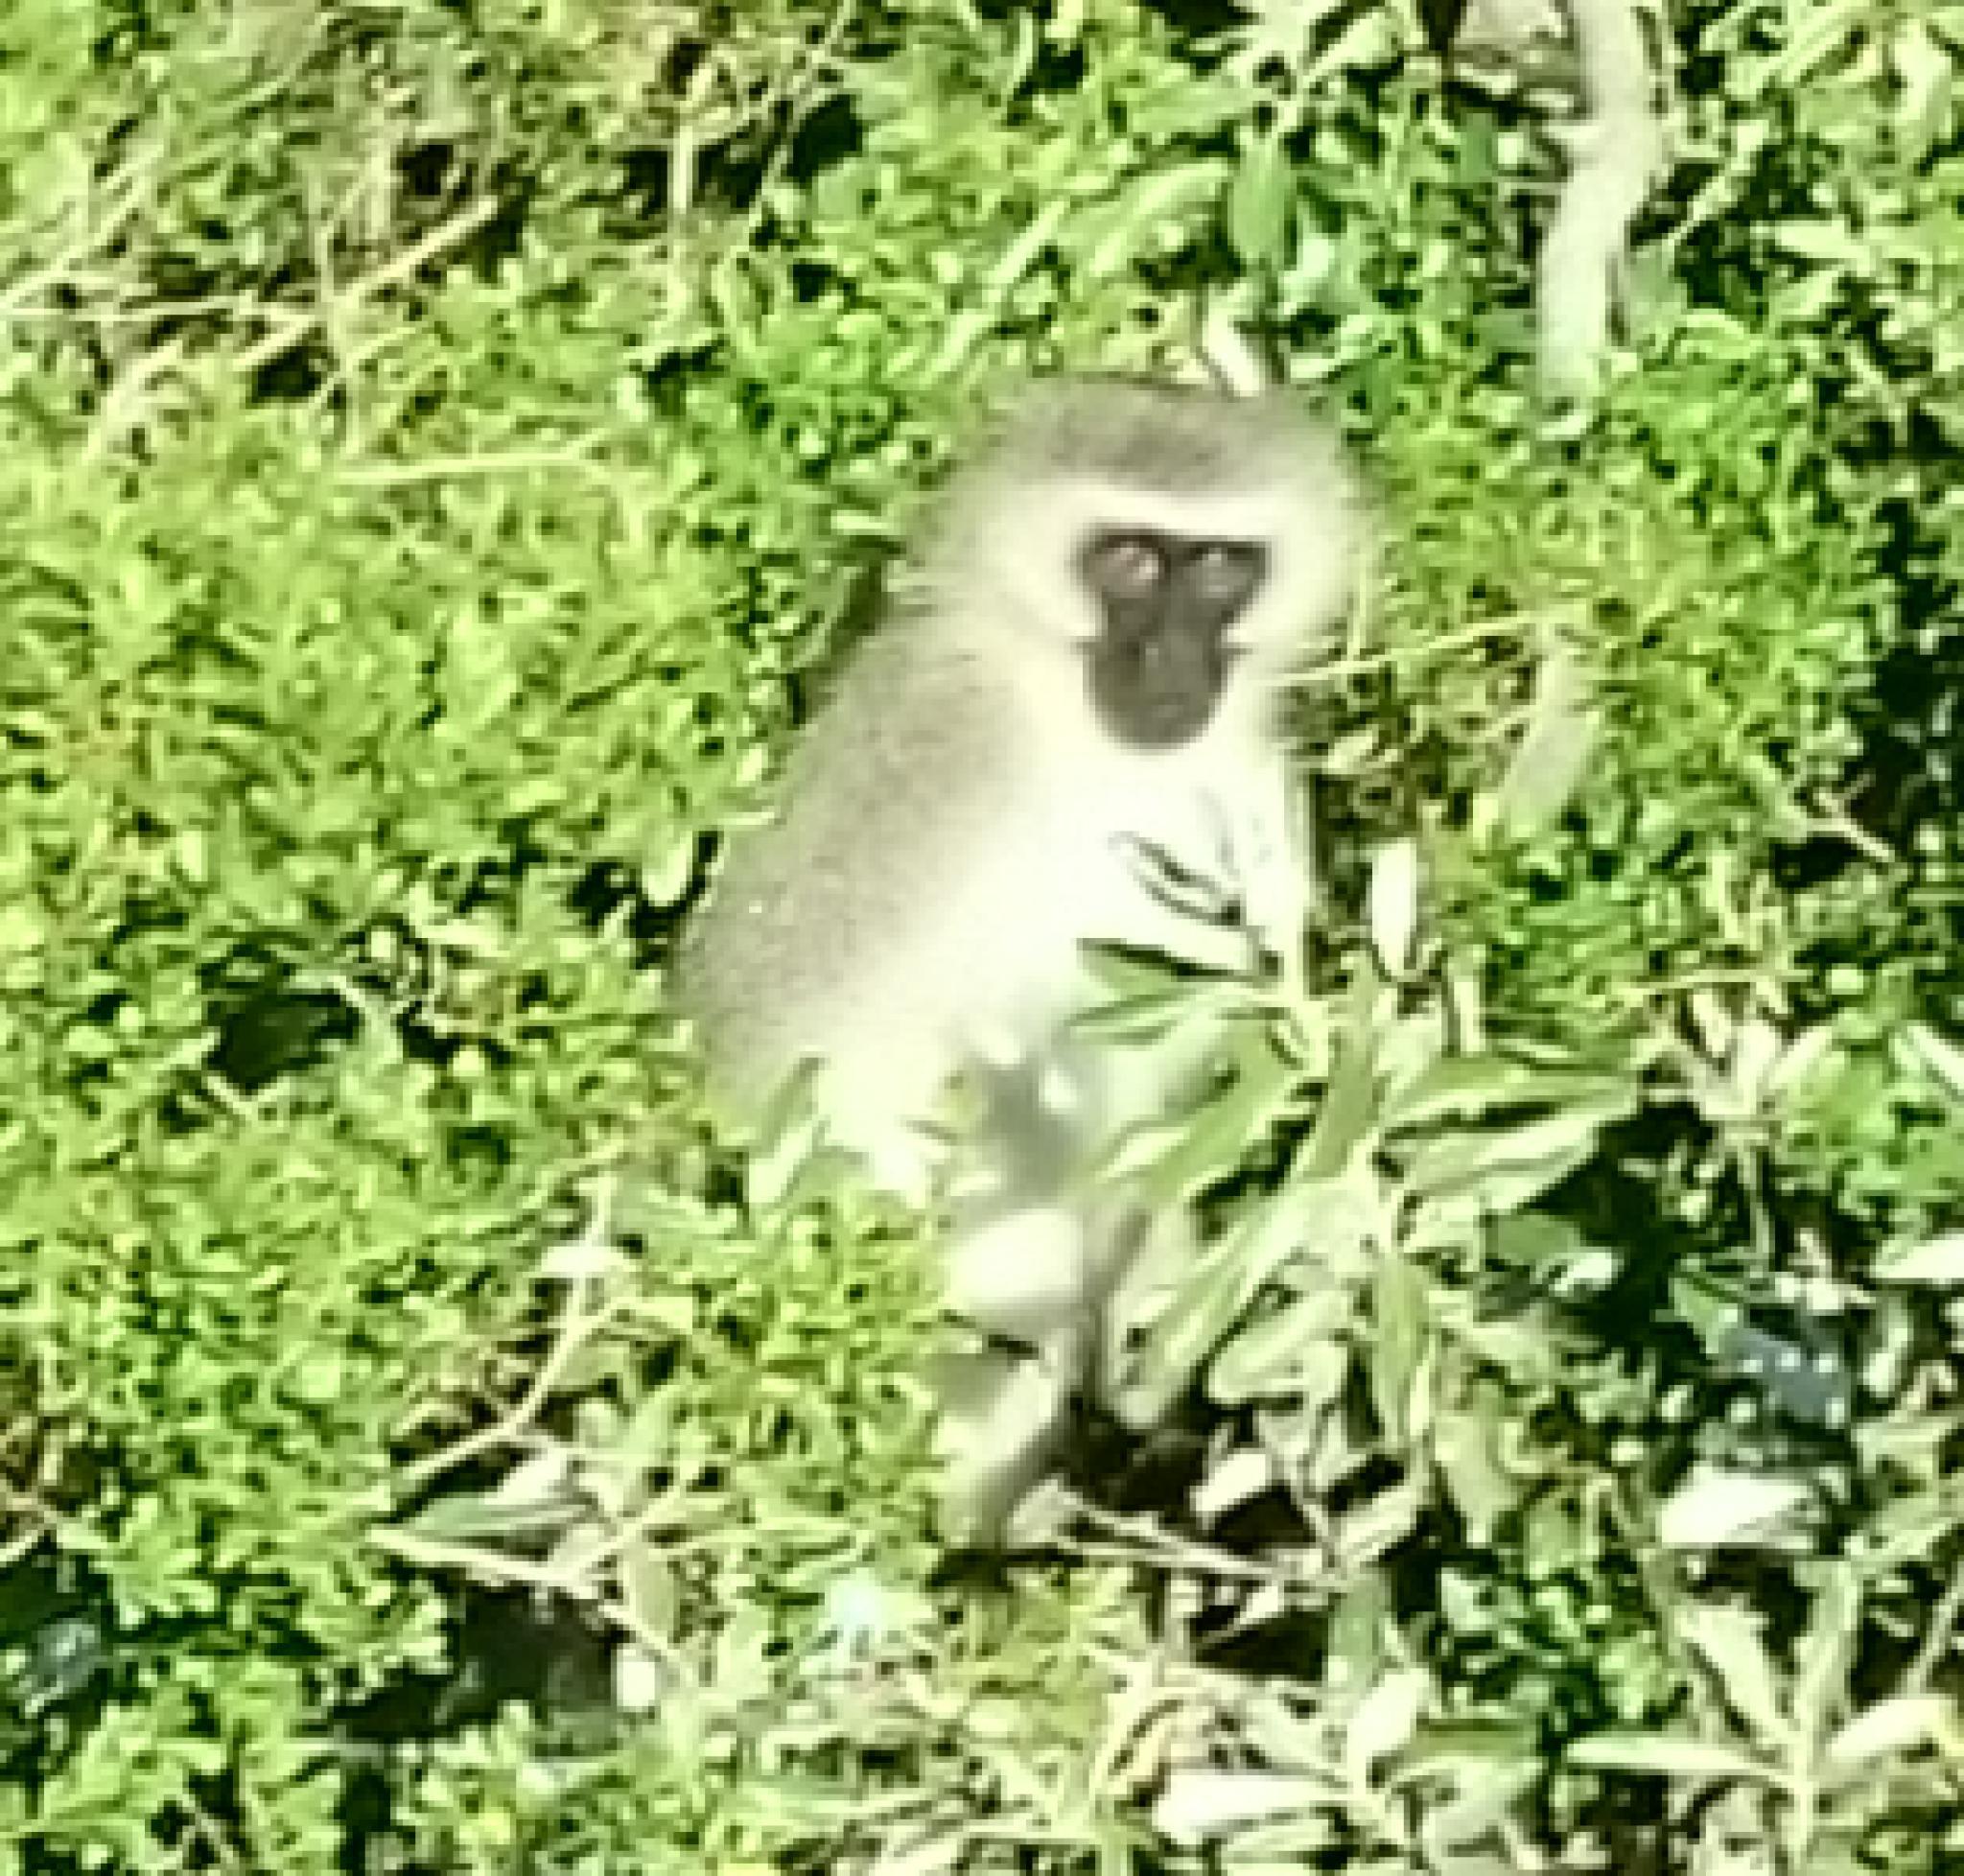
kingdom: Animalia
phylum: Chordata
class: Mammalia
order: Primates
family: Cercopithecidae
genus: Chlorocebus
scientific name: Chlorocebus pygerythrus
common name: Vervet monkey
